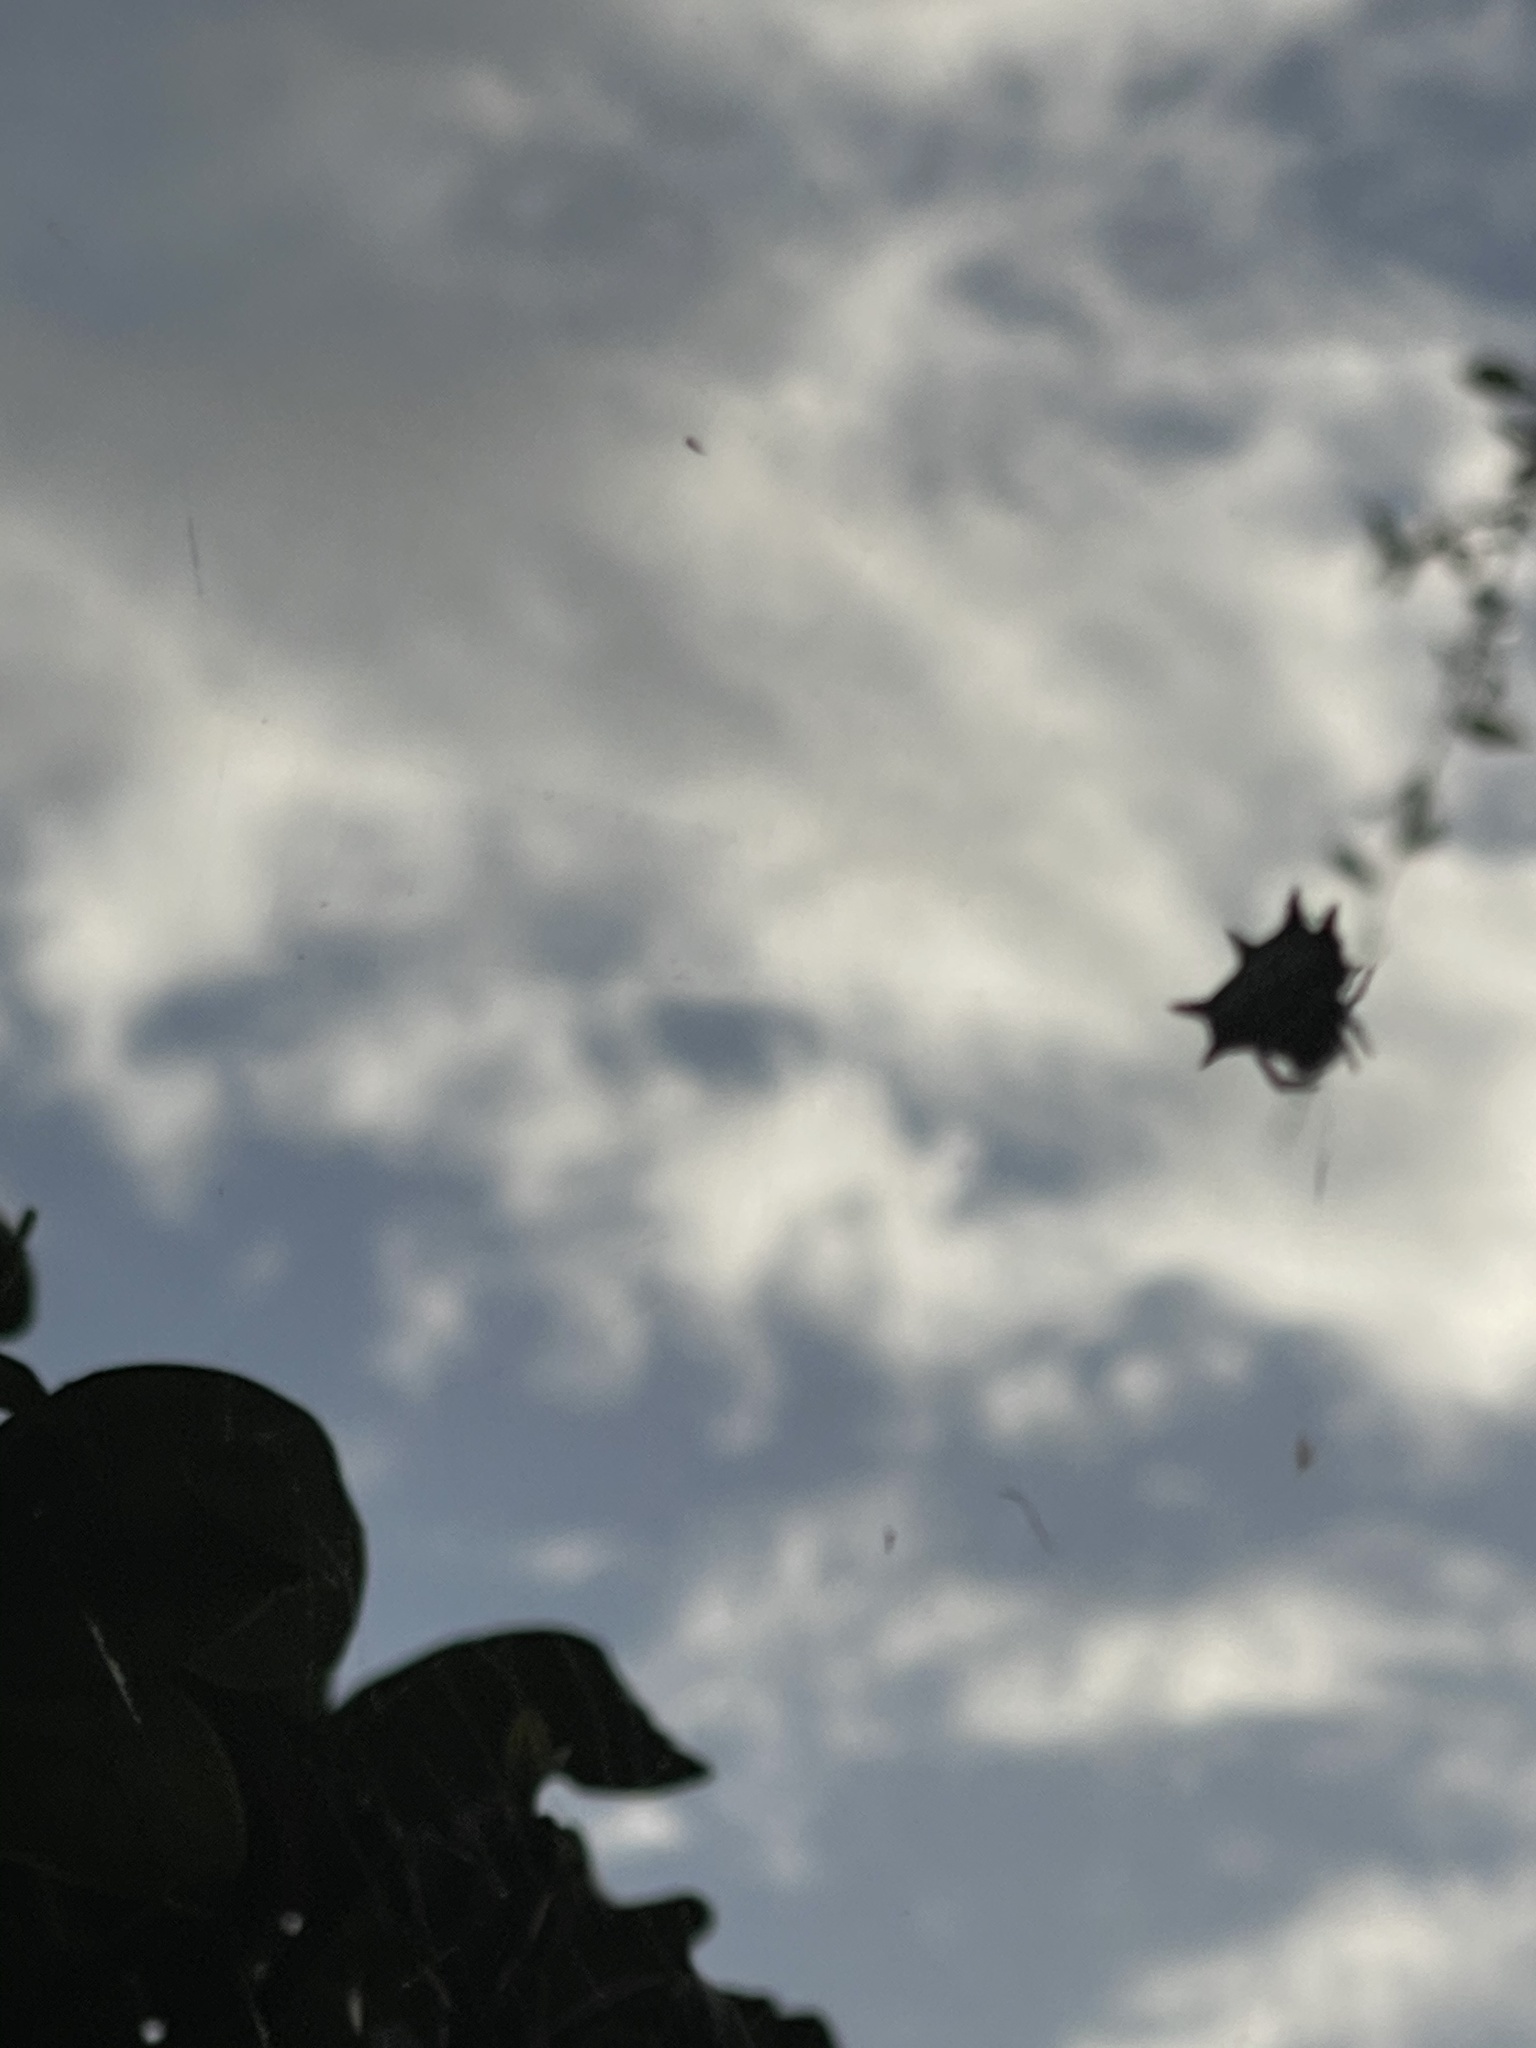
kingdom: Animalia
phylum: Arthropoda
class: Arachnida
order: Araneae
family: Araneidae
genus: Gasteracantha
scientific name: Gasteracantha cancriformis
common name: Orb weavers
